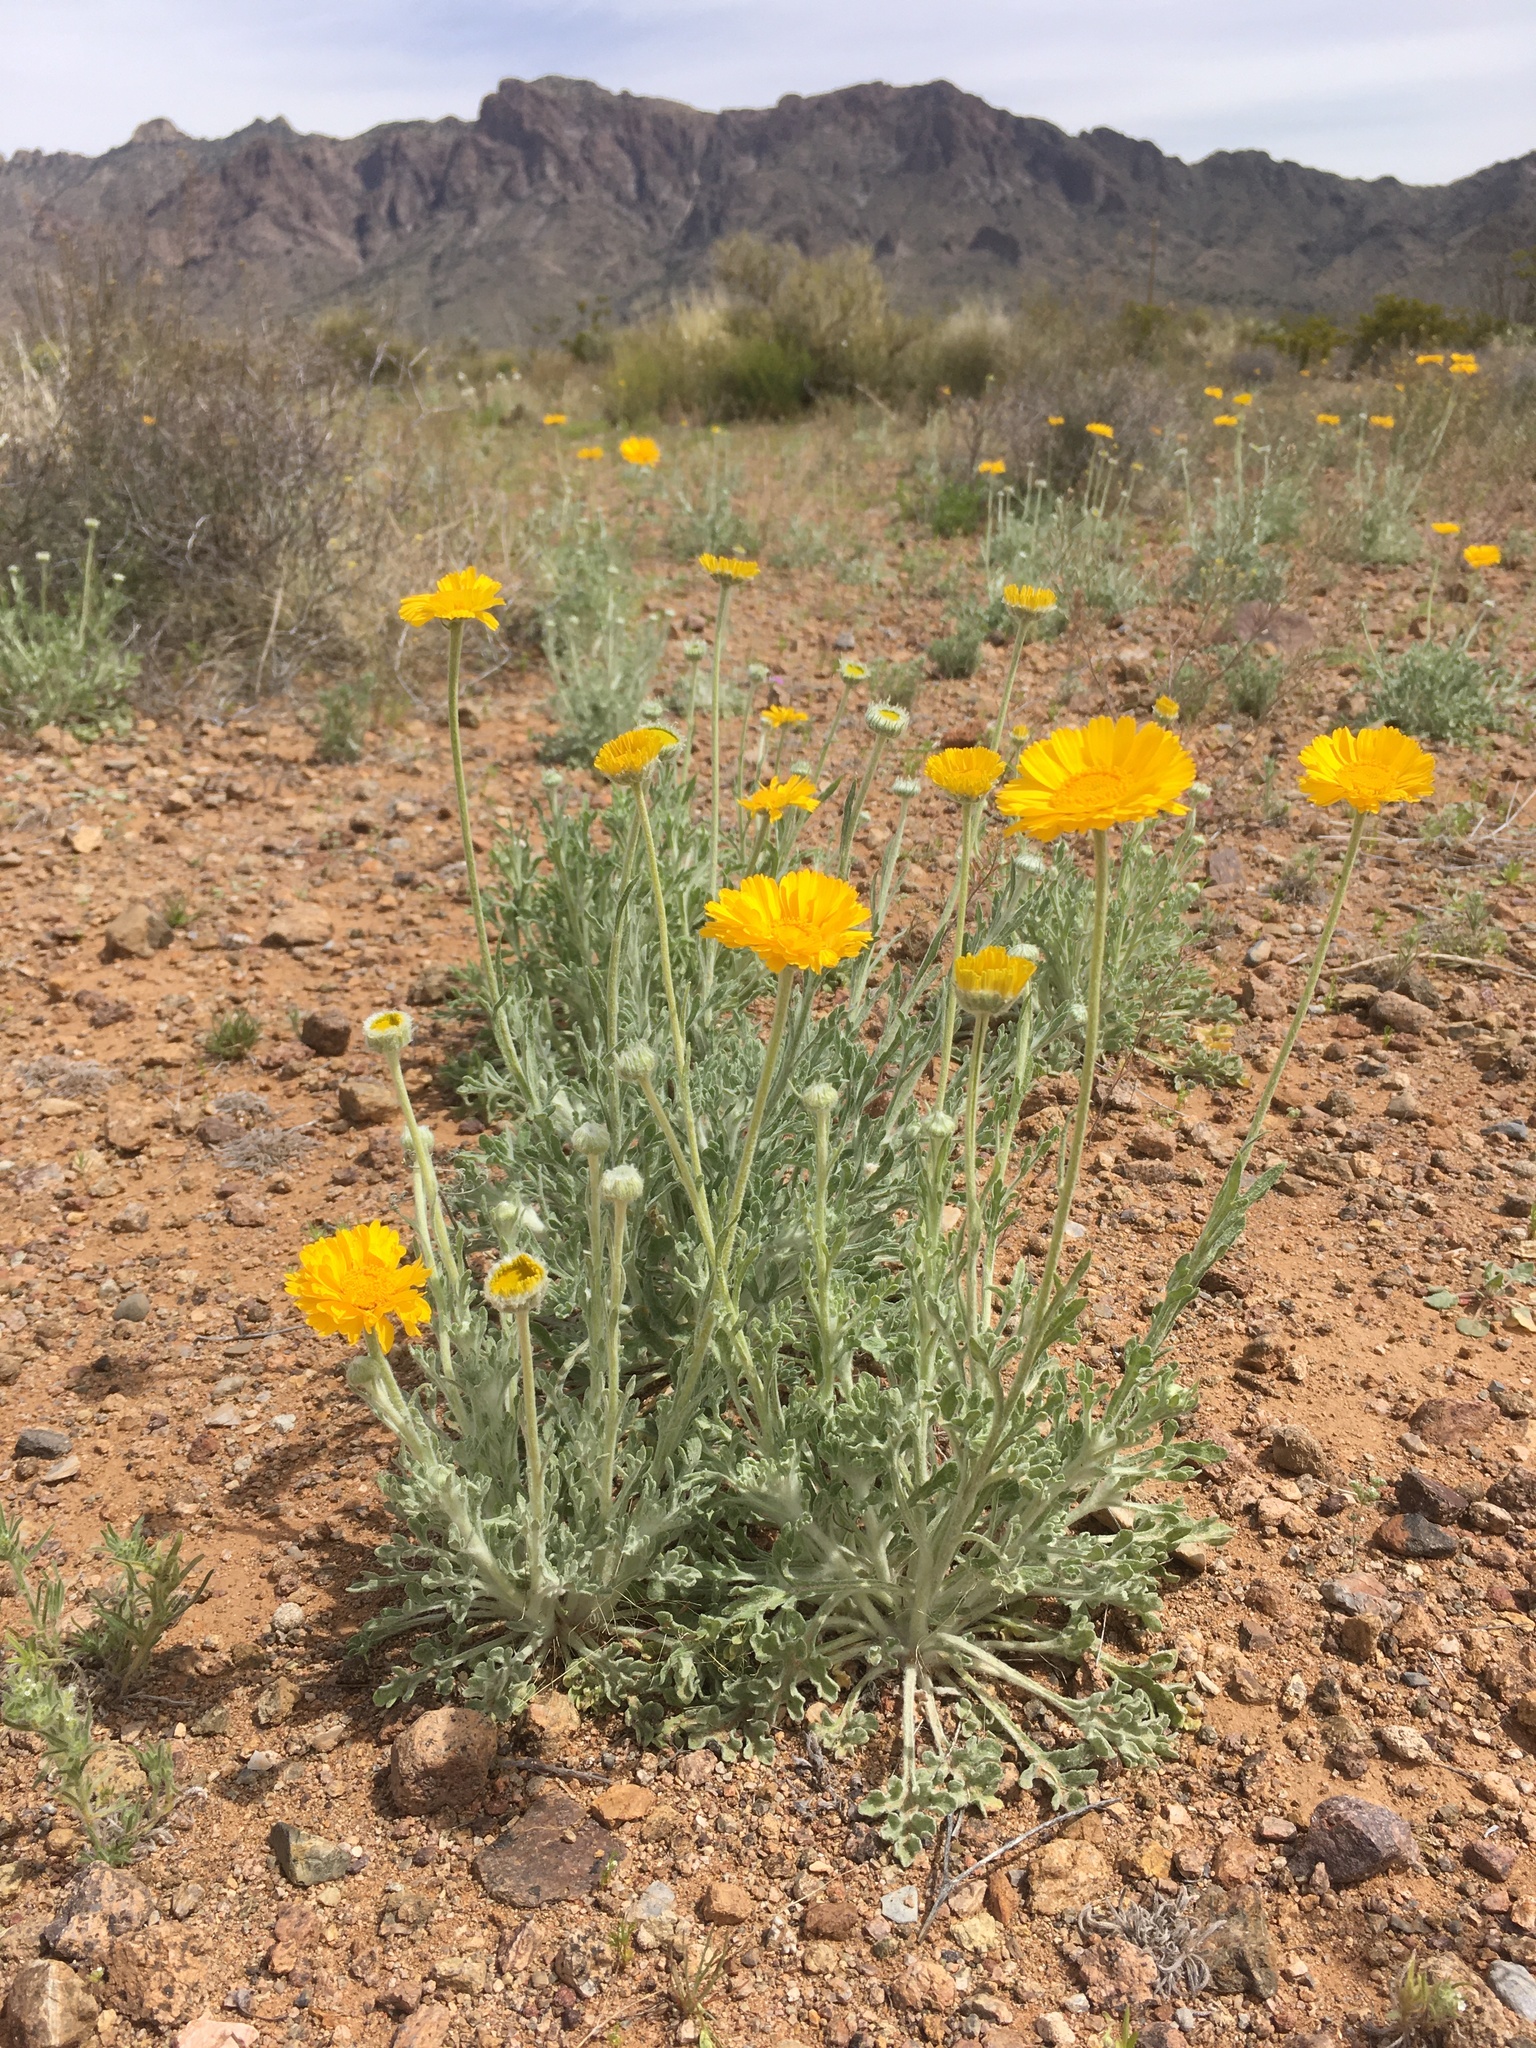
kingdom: Plantae
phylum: Tracheophyta
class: Magnoliopsida
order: Asterales
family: Asteraceae
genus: Baileya
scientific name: Baileya multiradiata
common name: Desert-marigold
